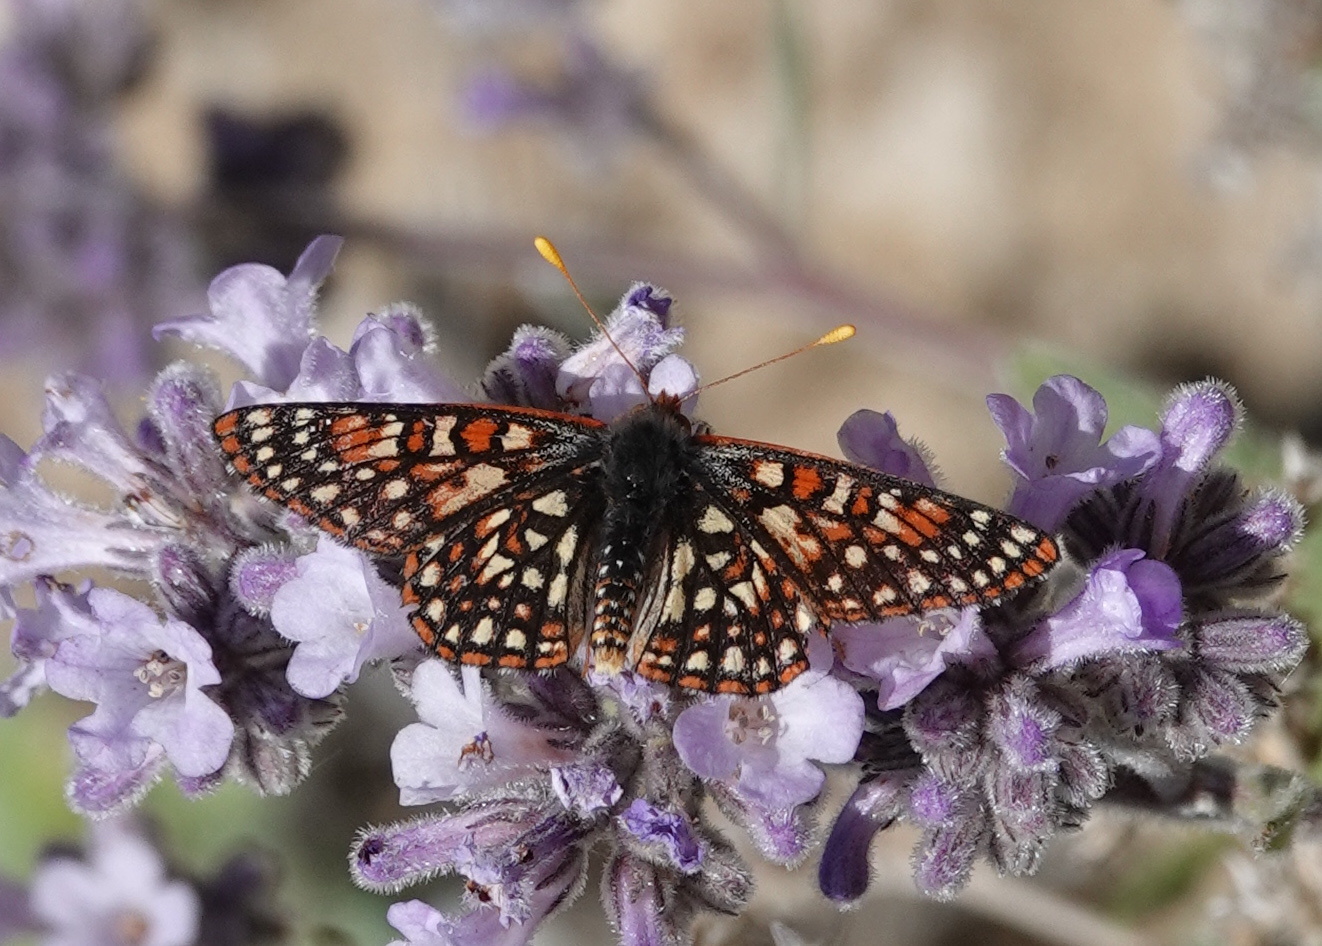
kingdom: Animalia
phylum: Arthropoda
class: Insecta
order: Lepidoptera
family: Nymphalidae
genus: Occidryas
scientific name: Occidryas chalcedona
